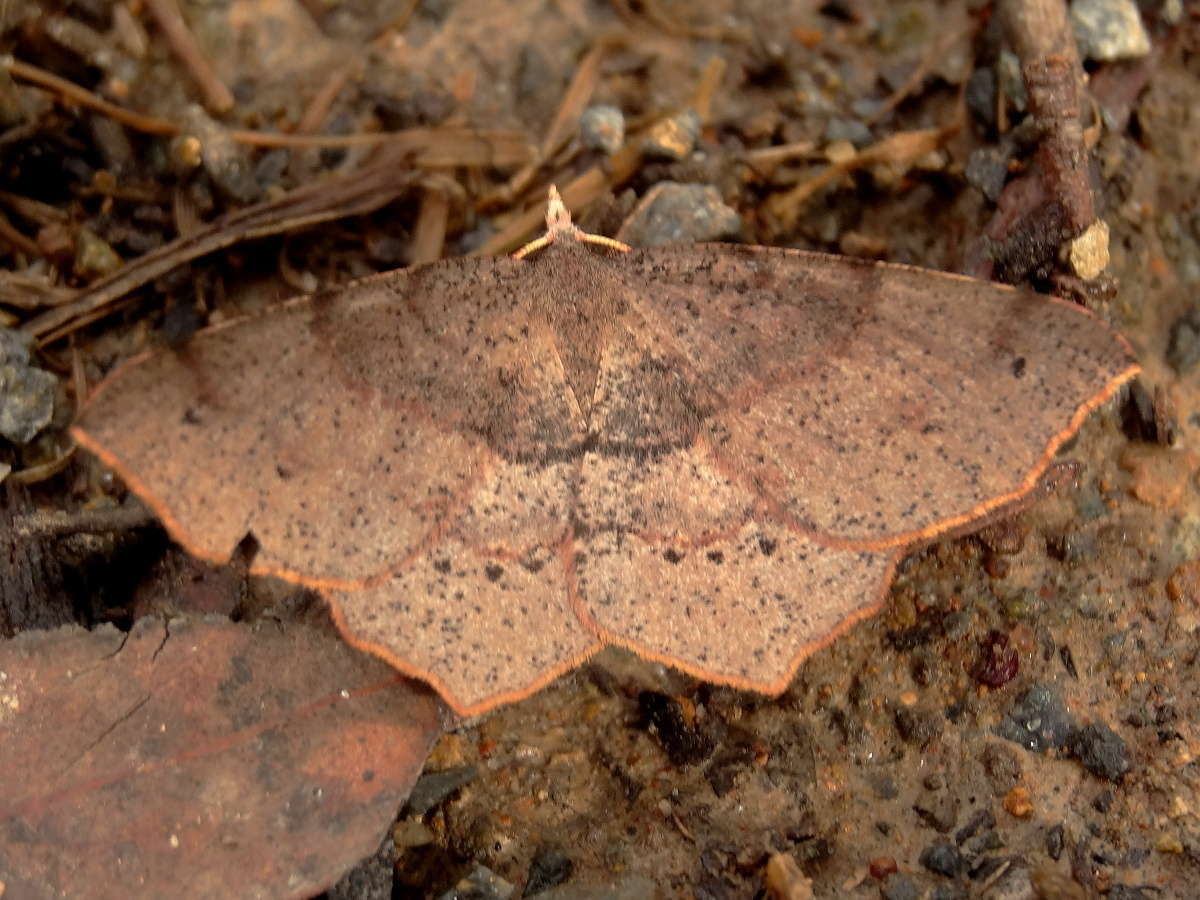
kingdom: Animalia
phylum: Arthropoda
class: Insecta
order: Lepidoptera
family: Geometridae
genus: Rhinodia
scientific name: Rhinodia rostraria
